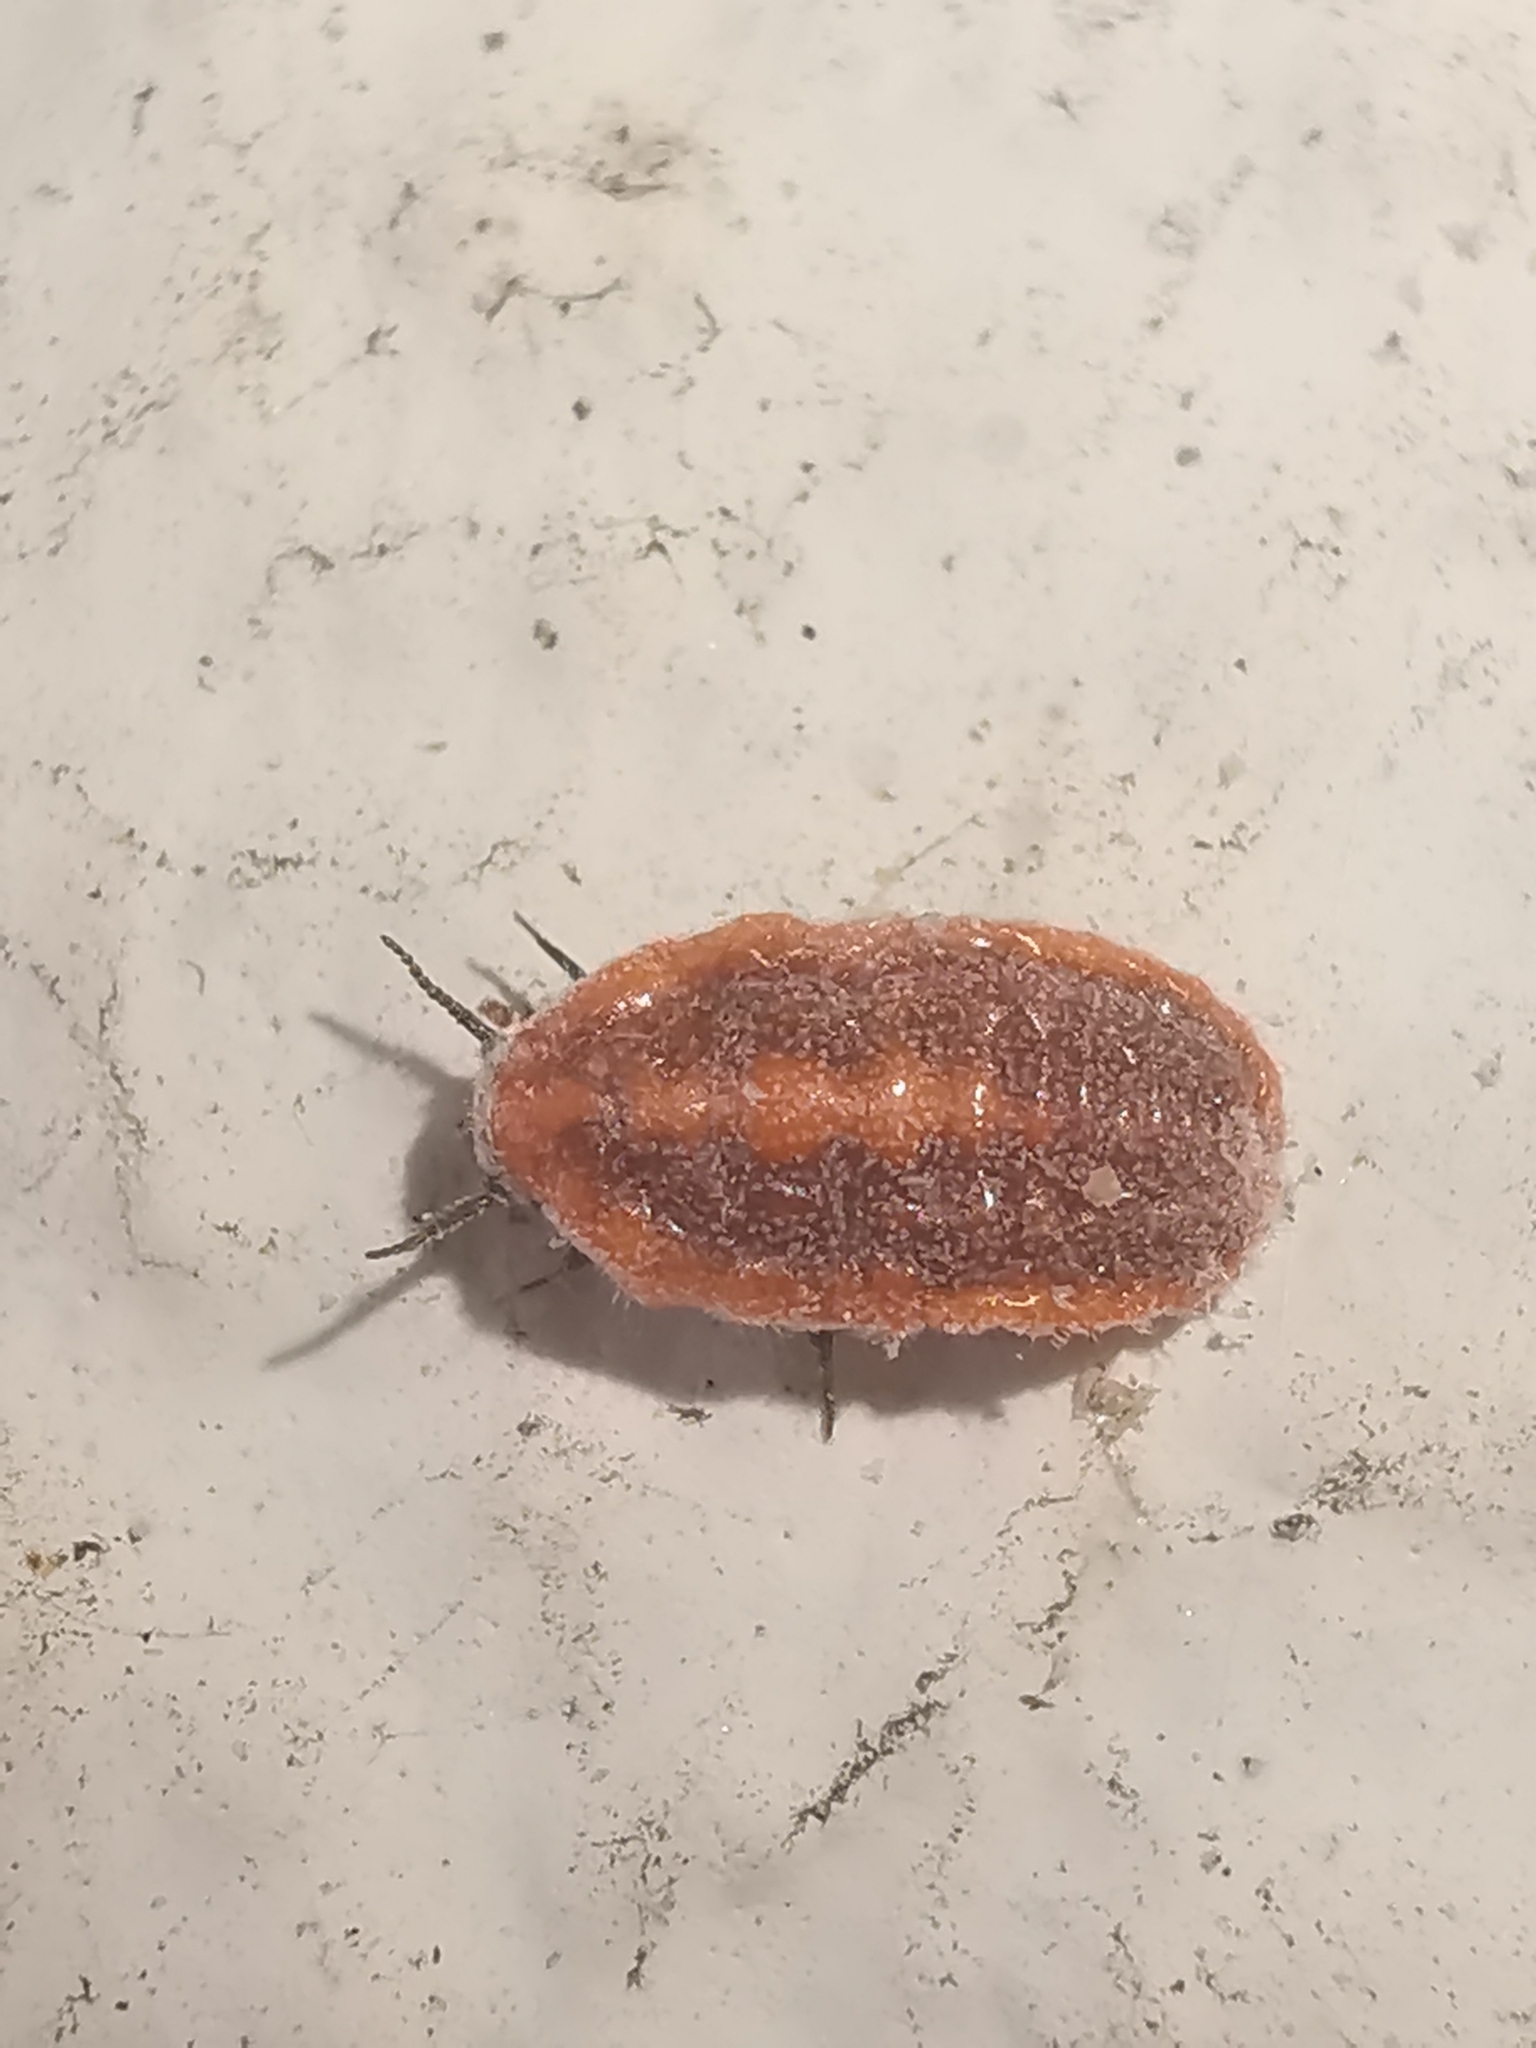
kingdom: Animalia
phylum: Arthropoda
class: Insecta
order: Hemiptera
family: Margarodidae
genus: Icerya
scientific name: Icerya purchasi
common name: Cottony cushion scale
